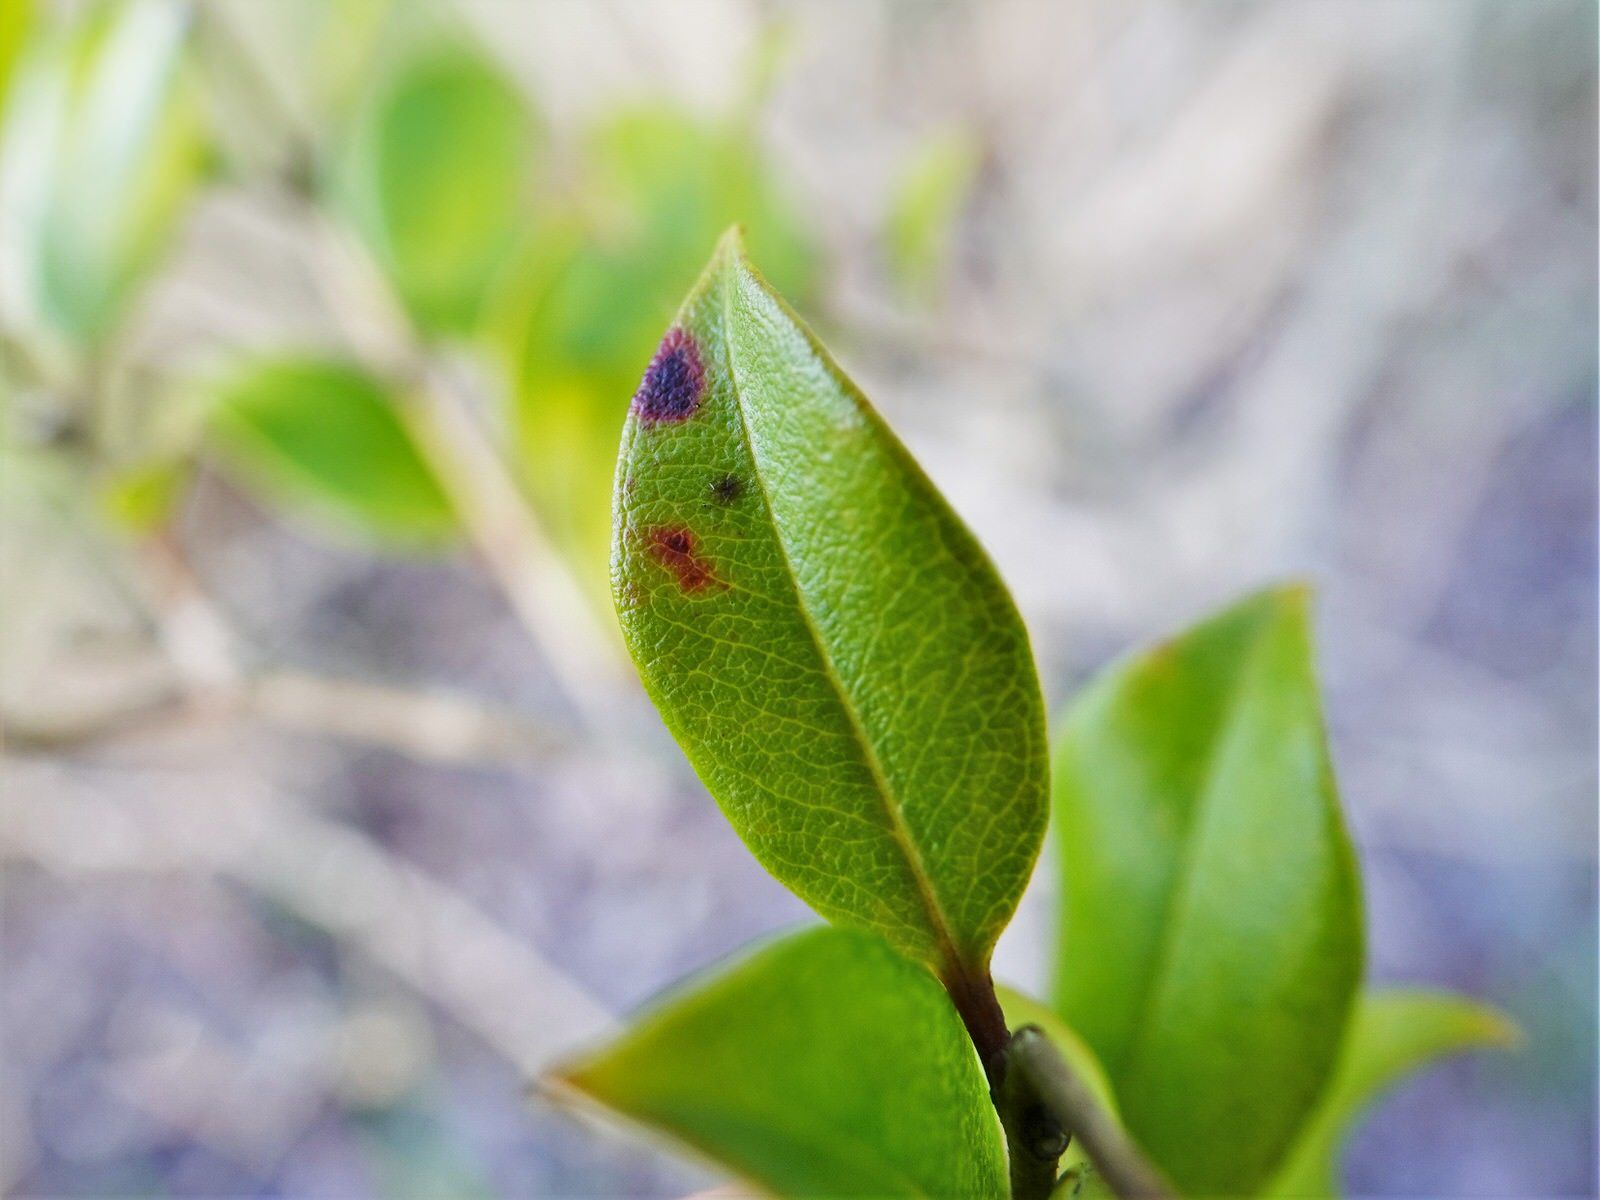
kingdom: Fungi
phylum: Basidiomycota
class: Pucciniomycetes
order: Pucciniales
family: Sphaerophragmiaceae
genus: Austropuccinia
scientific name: Austropuccinia psidii
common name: Myrtle rust
